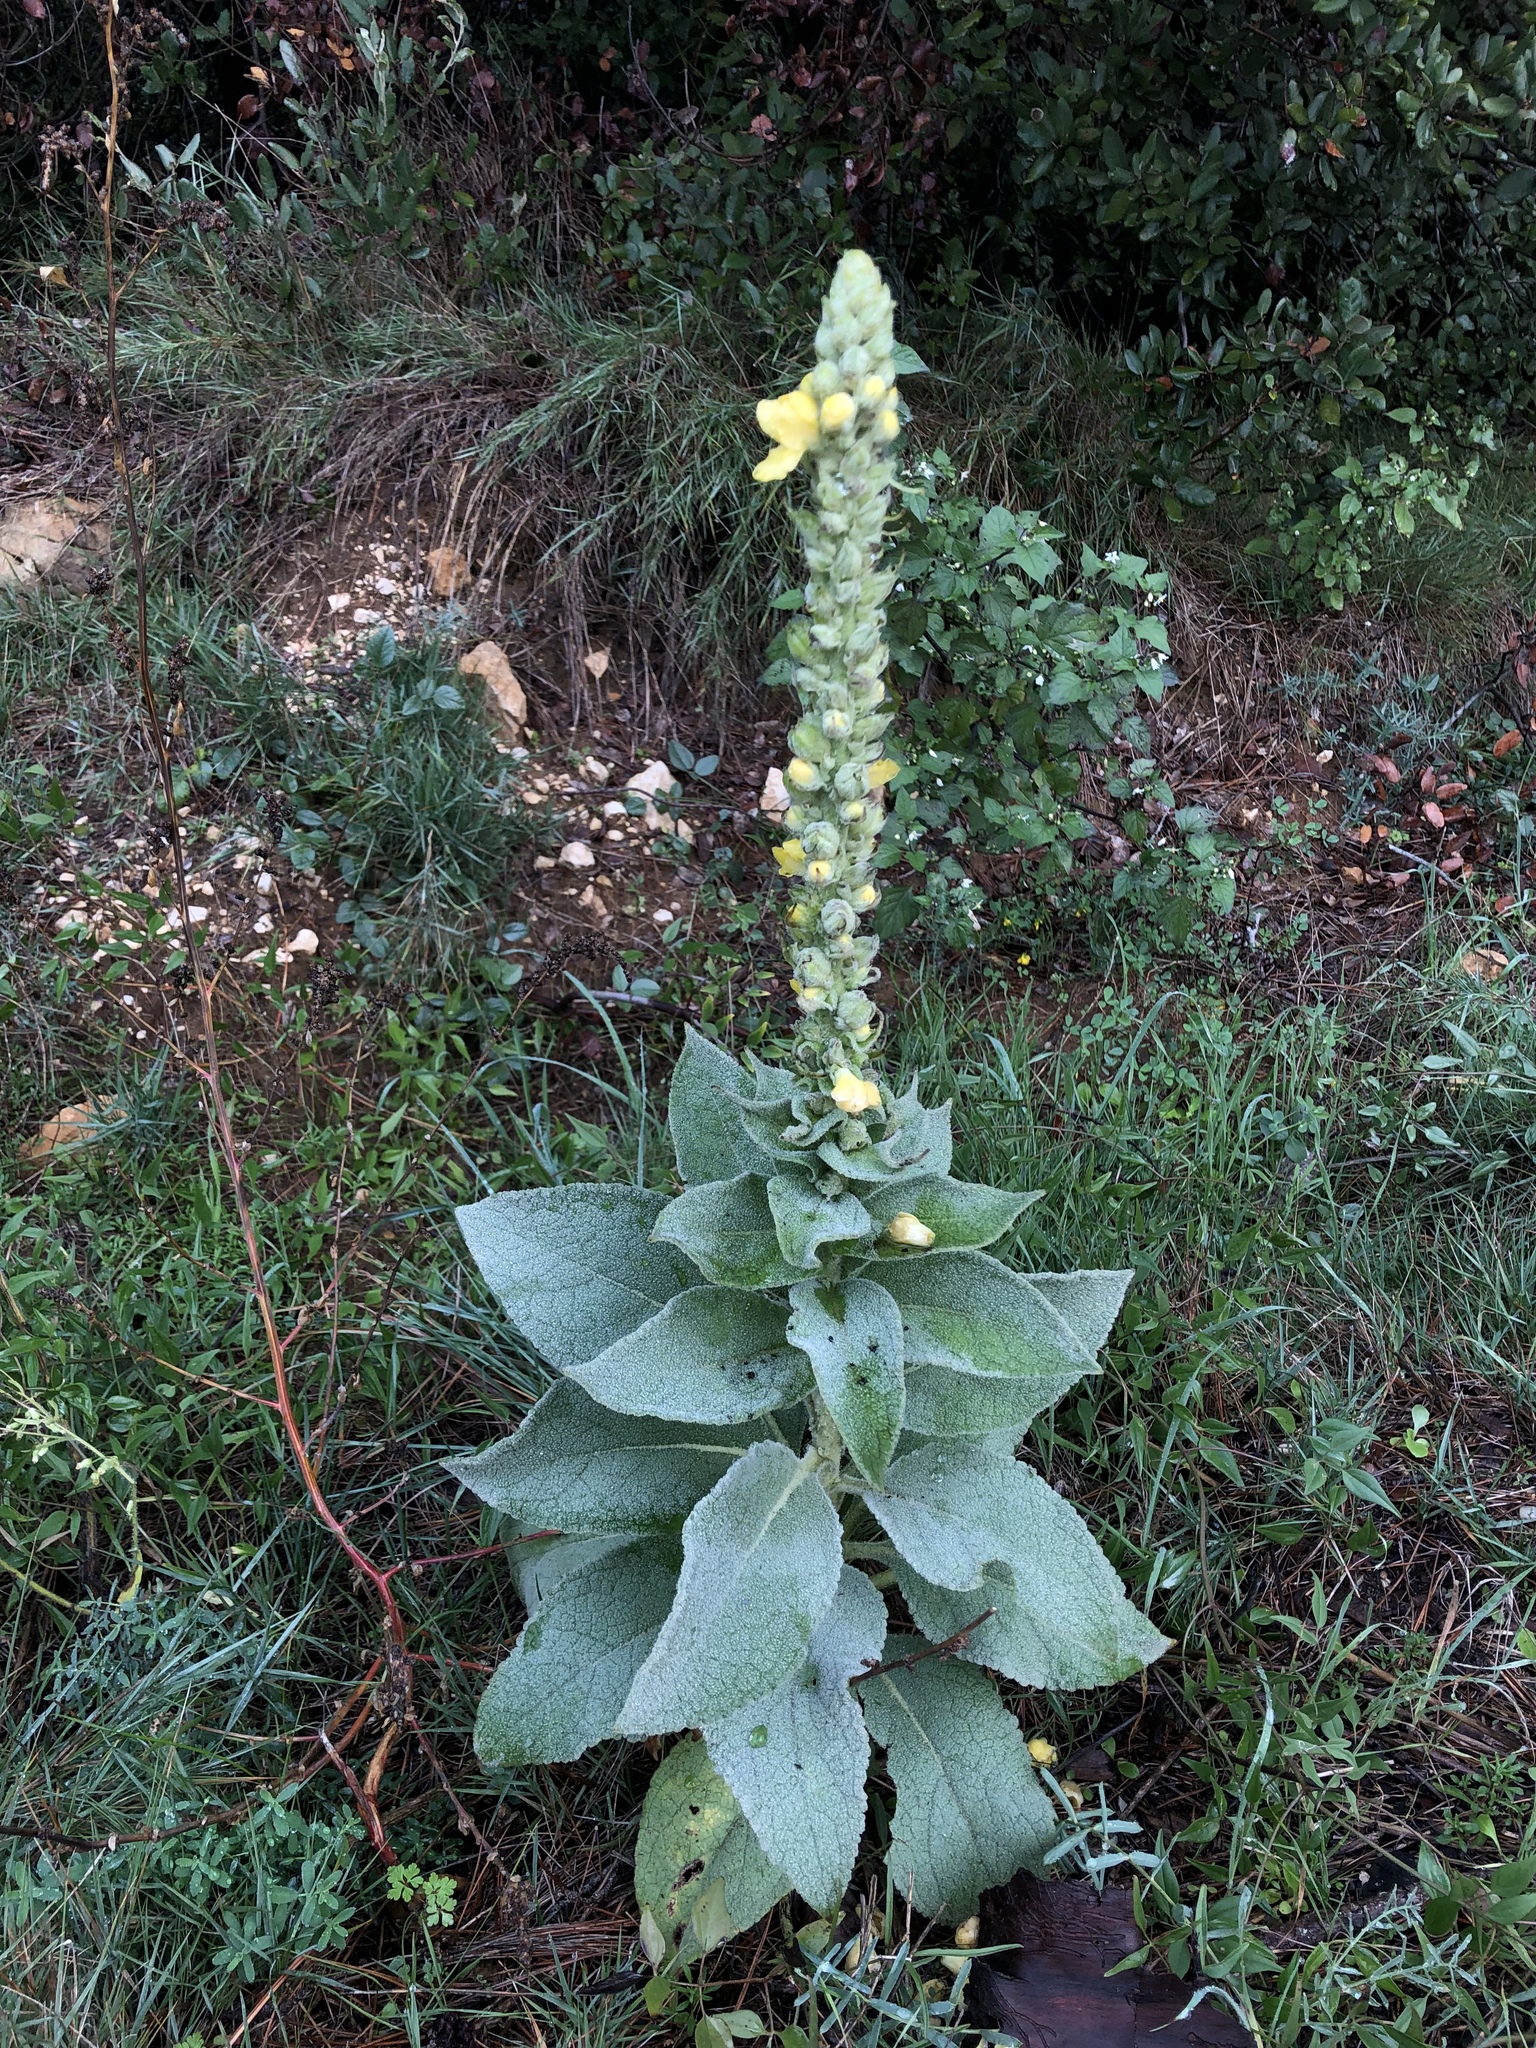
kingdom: Plantae
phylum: Tracheophyta
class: Magnoliopsida
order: Lamiales
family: Scrophulariaceae
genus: Verbascum
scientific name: Verbascum thapsus
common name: Common mullein
